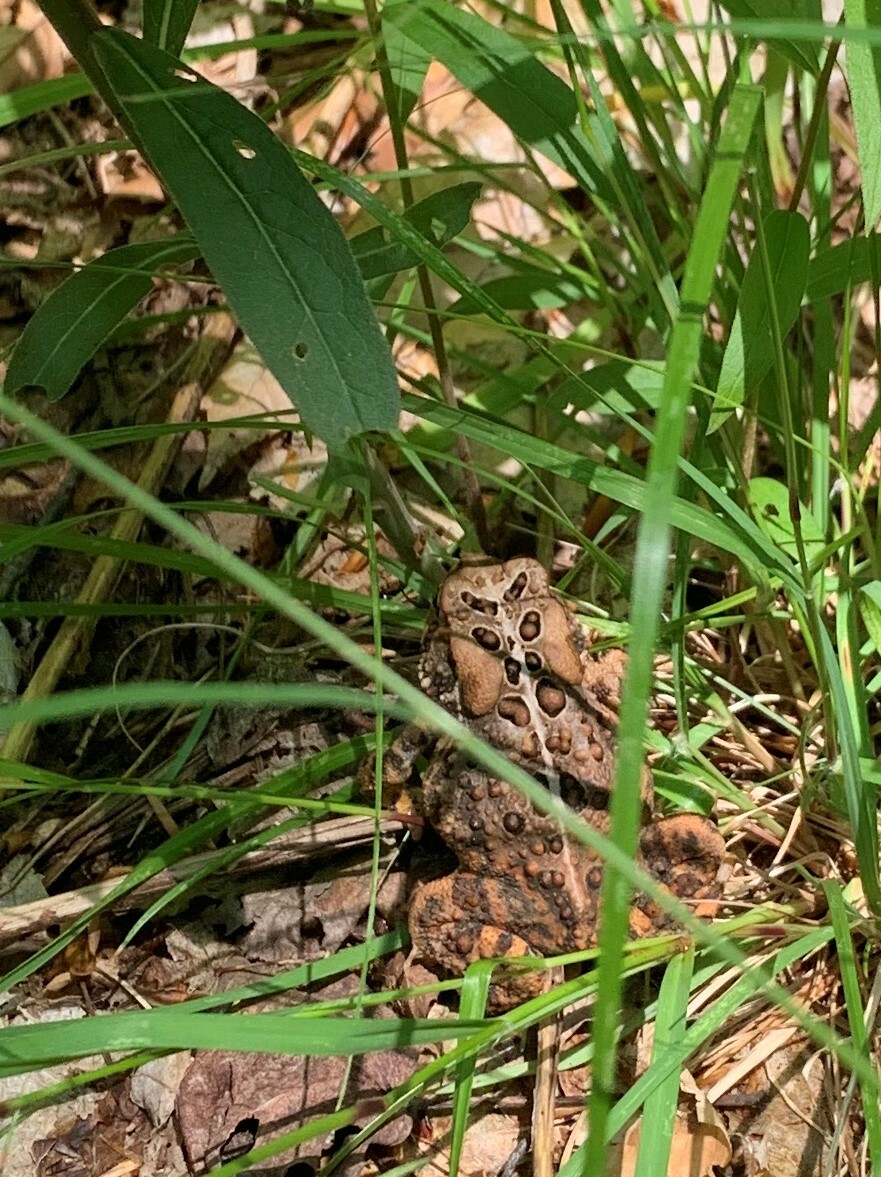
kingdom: Animalia
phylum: Chordata
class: Amphibia
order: Anura
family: Bufonidae
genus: Anaxyrus
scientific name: Anaxyrus americanus
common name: American toad
